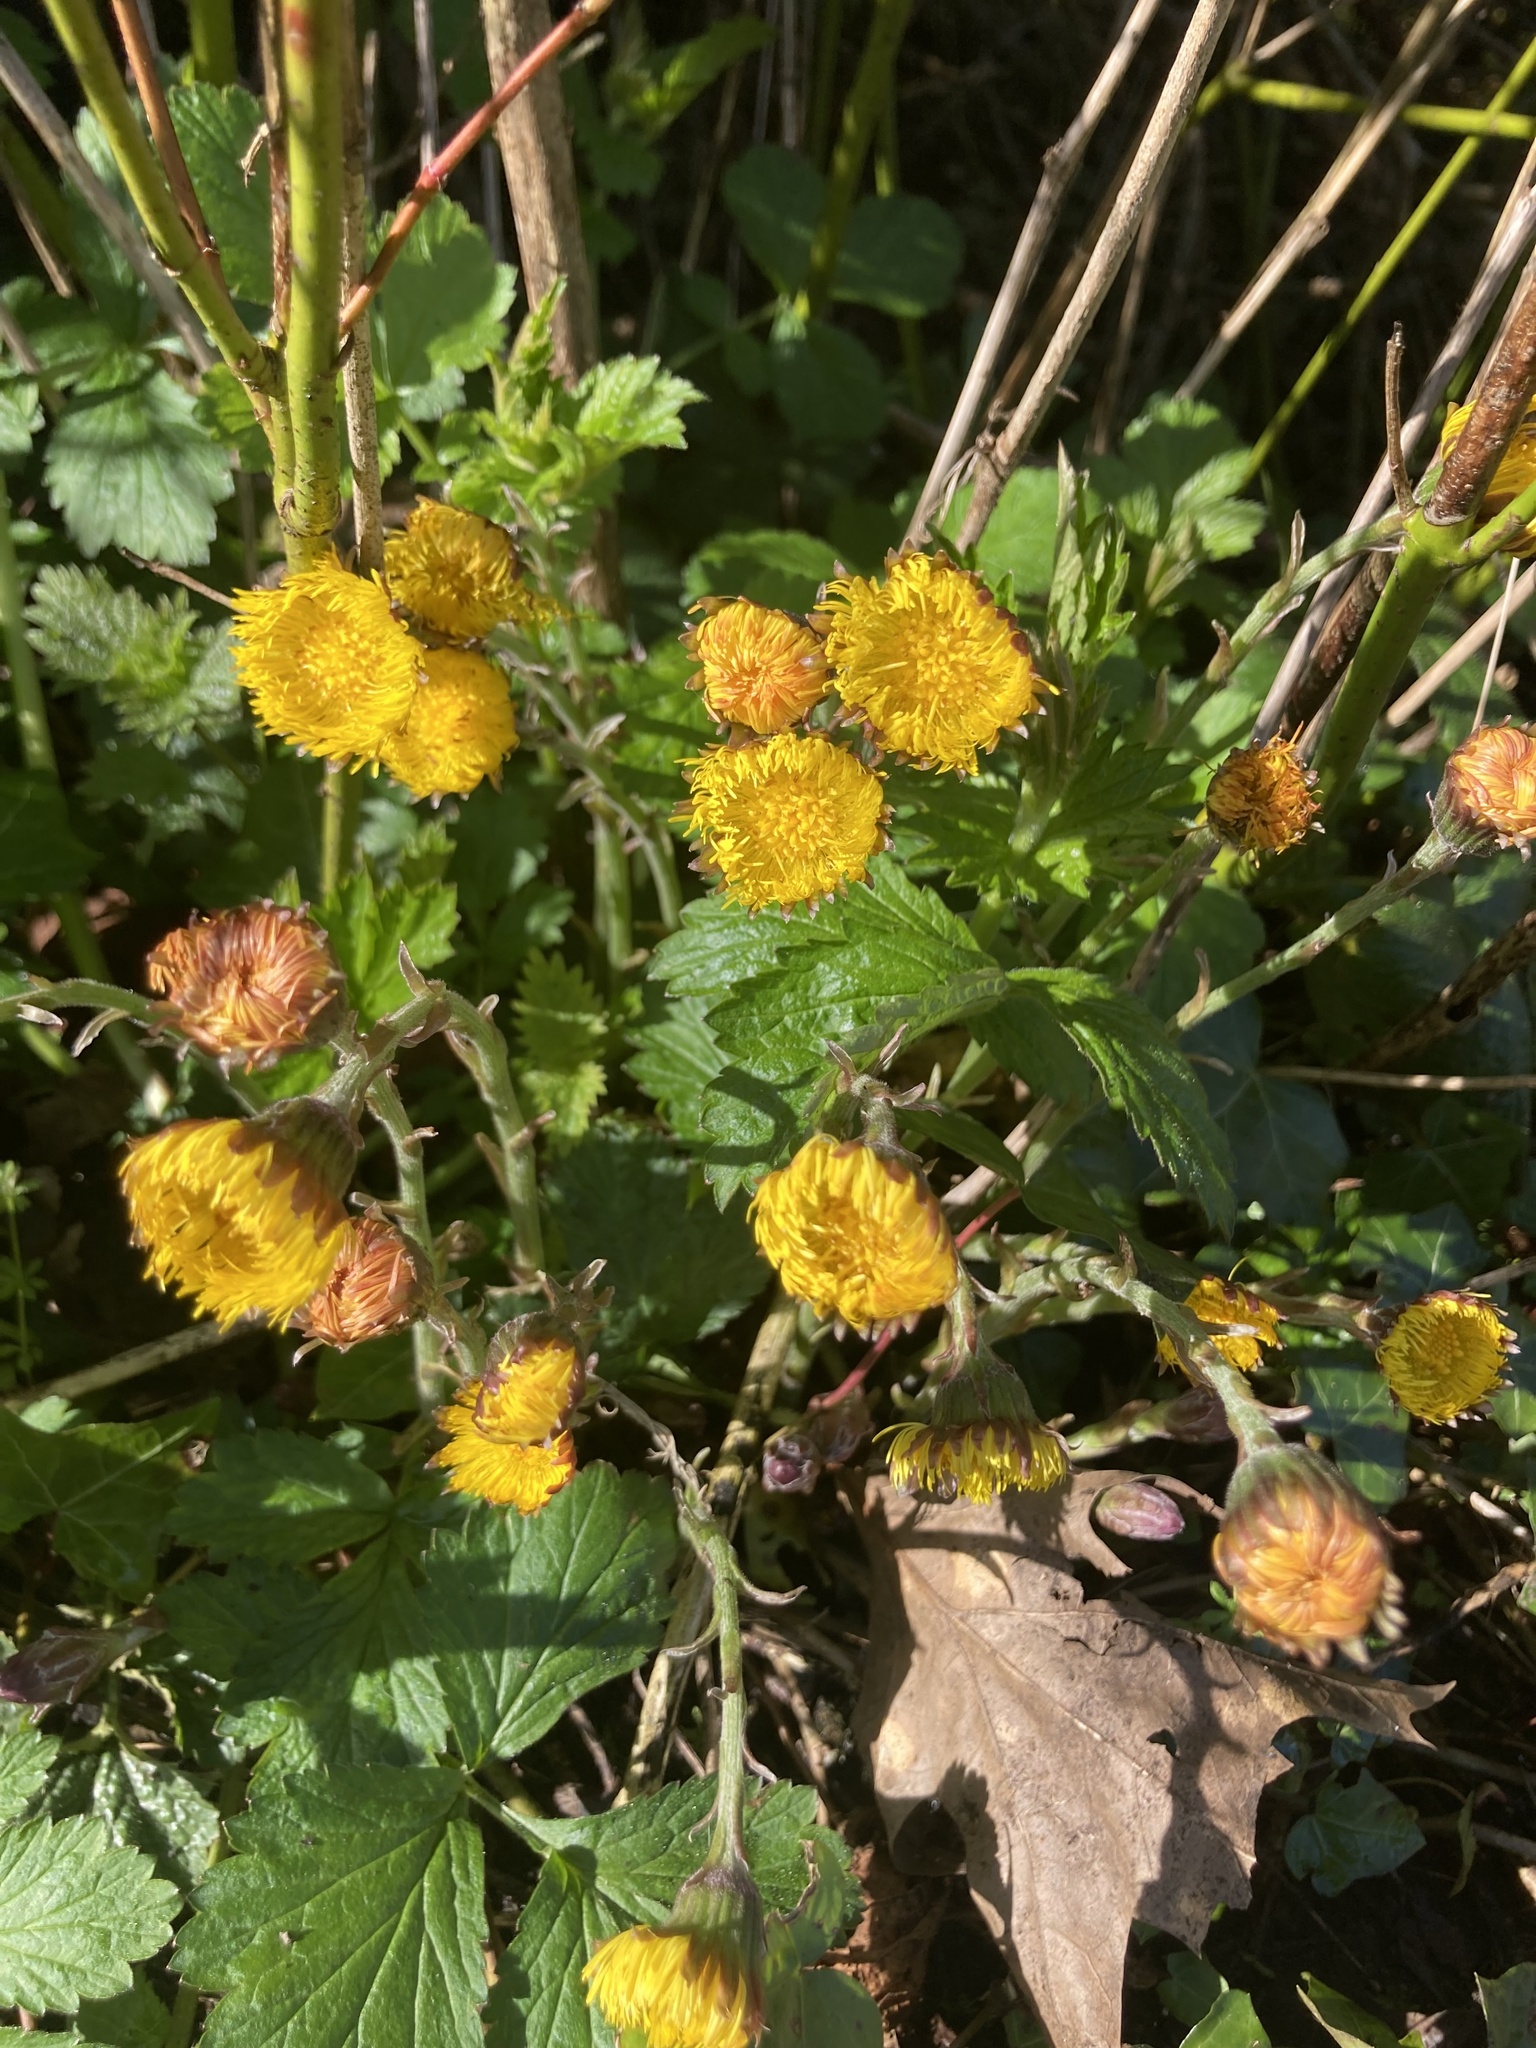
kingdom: Plantae
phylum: Tracheophyta
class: Magnoliopsida
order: Asterales
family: Asteraceae
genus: Tussilago
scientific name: Tussilago farfara
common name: Coltsfoot
